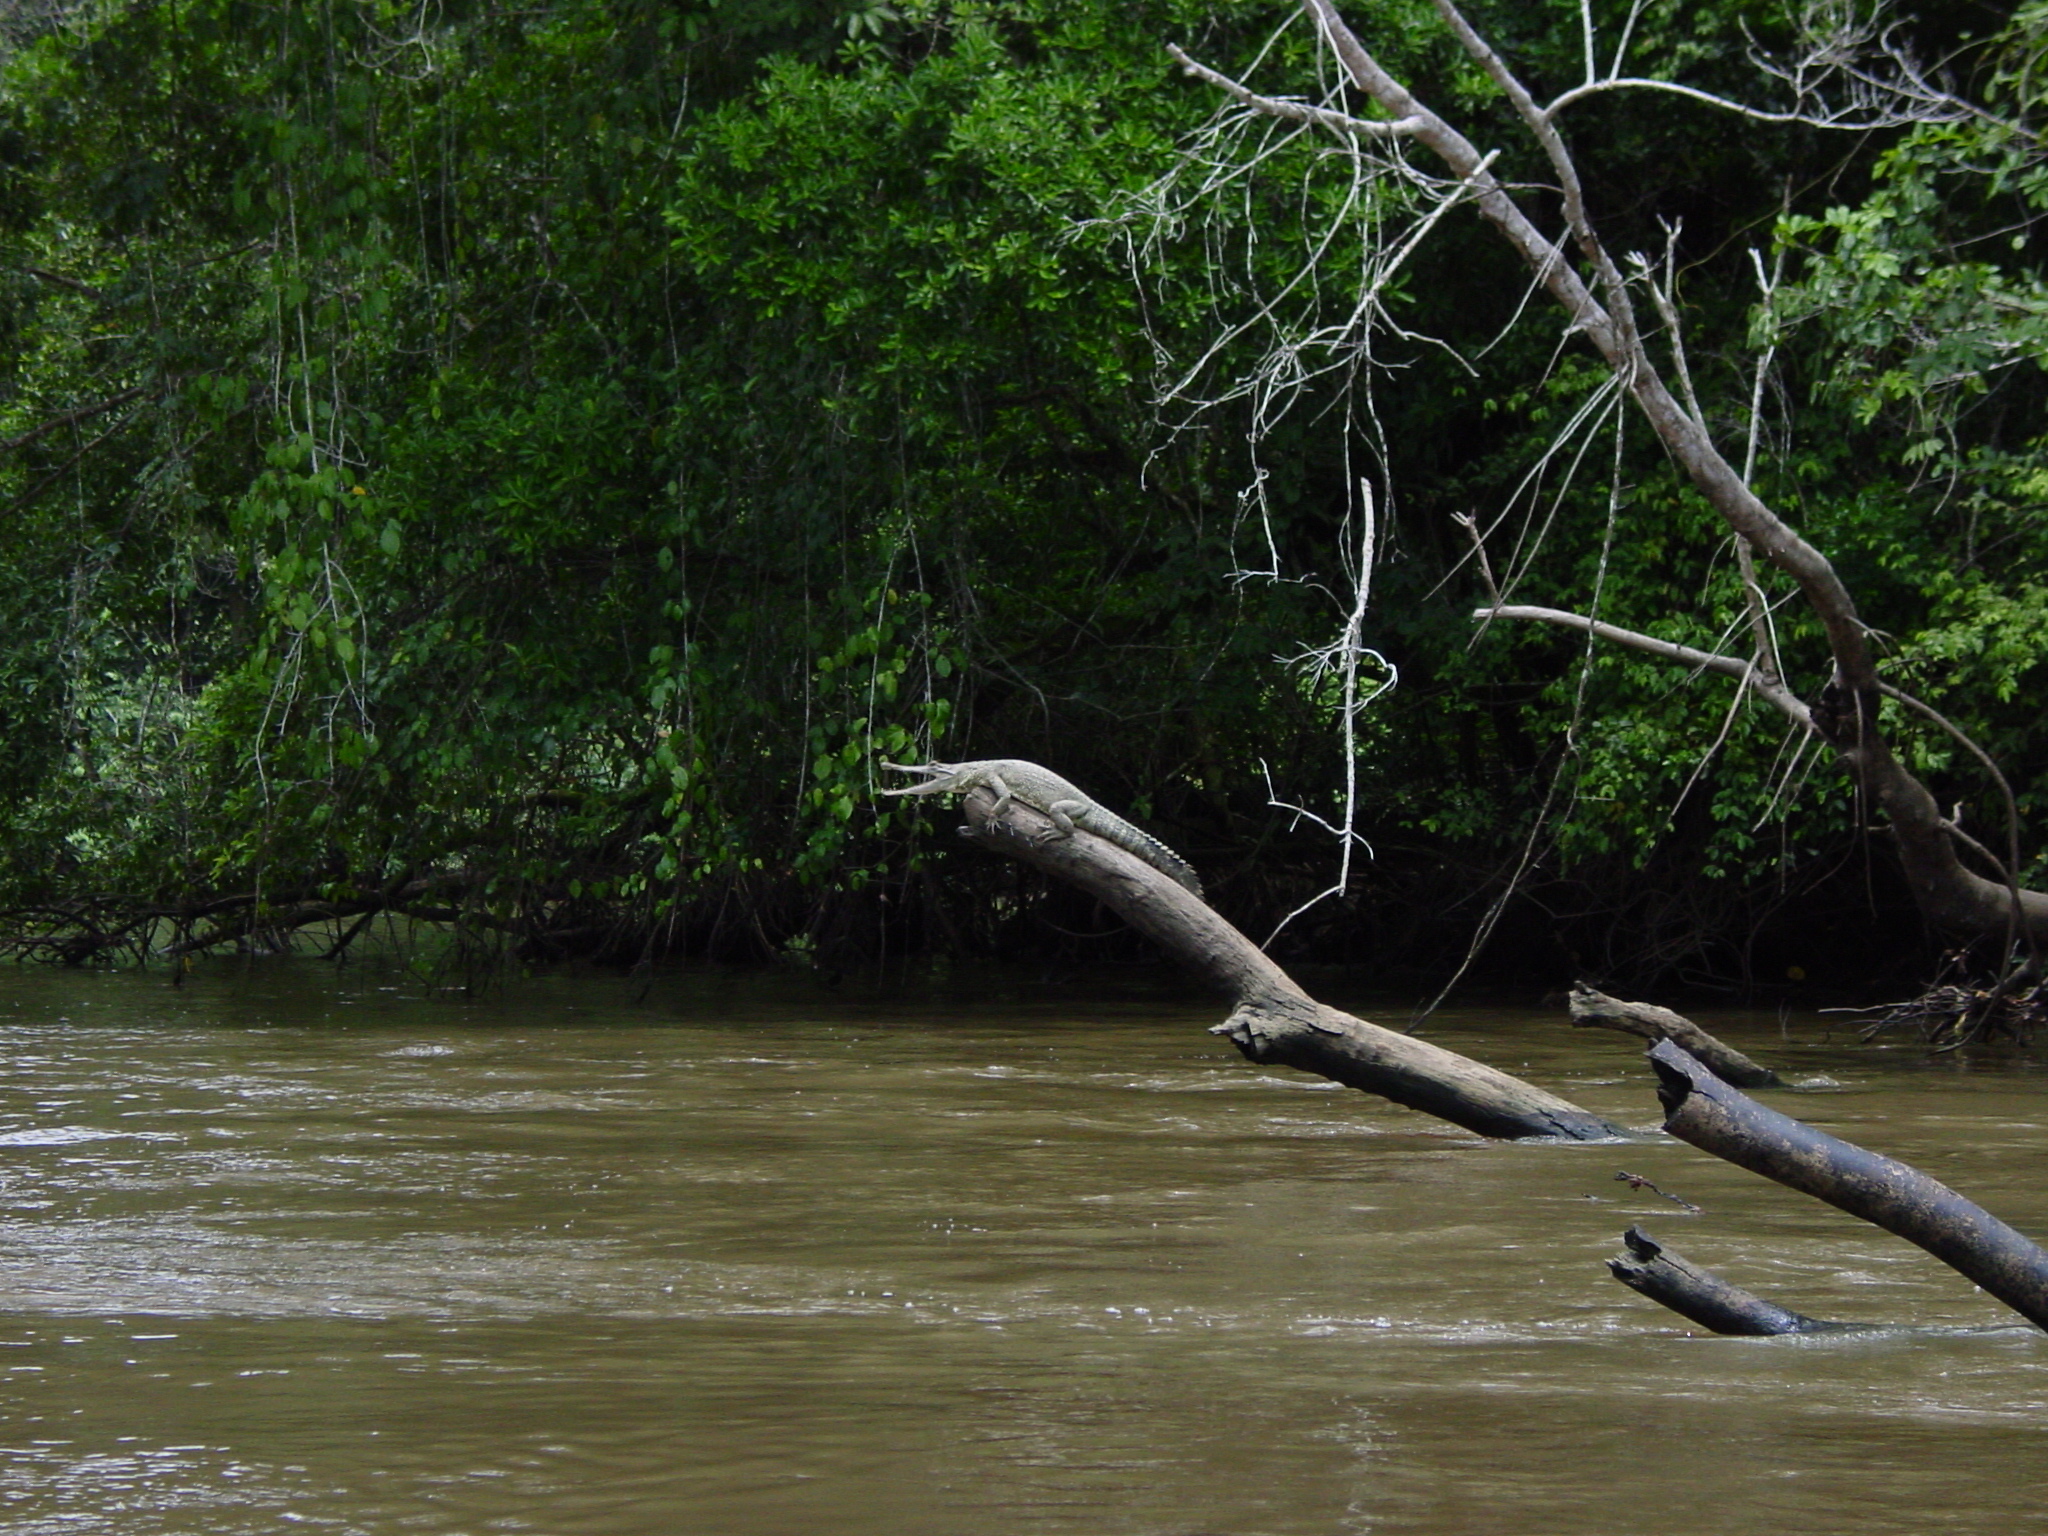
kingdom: Animalia
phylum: Chordata
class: Crocodylia
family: Crocodylidae
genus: Mecistops
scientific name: Mecistops leptorhynchus
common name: Central african slender-snouted crocodile
